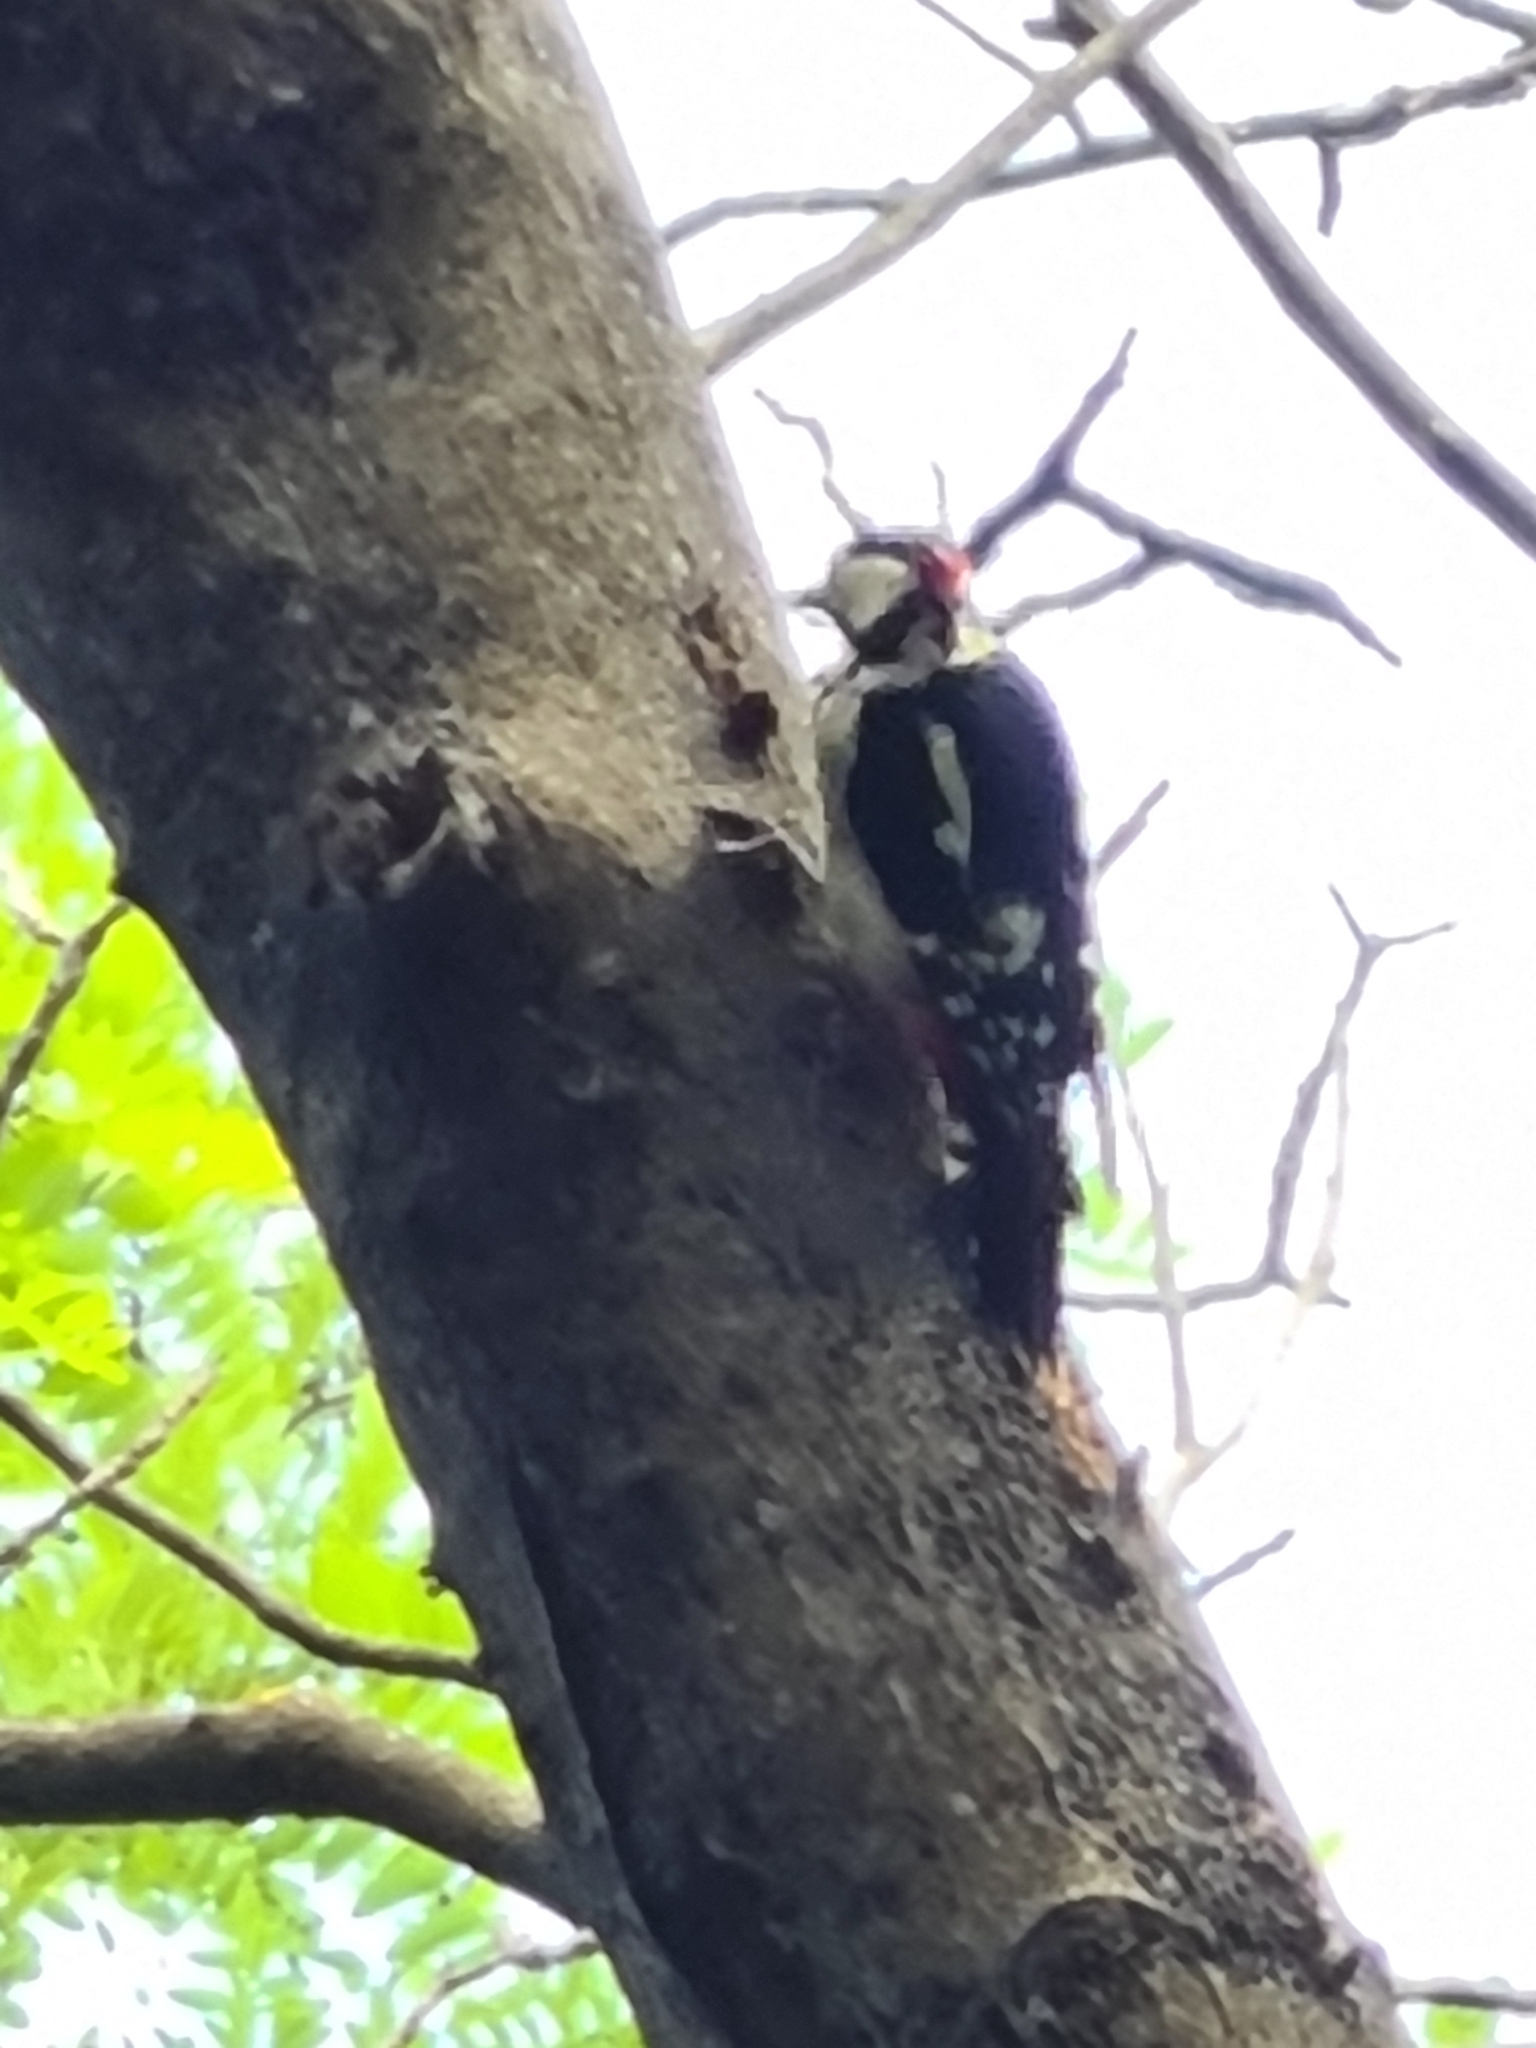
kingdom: Animalia
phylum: Chordata
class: Aves
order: Piciformes
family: Picidae
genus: Dendrocopos
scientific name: Dendrocopos major
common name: Great spotted woodpecker
